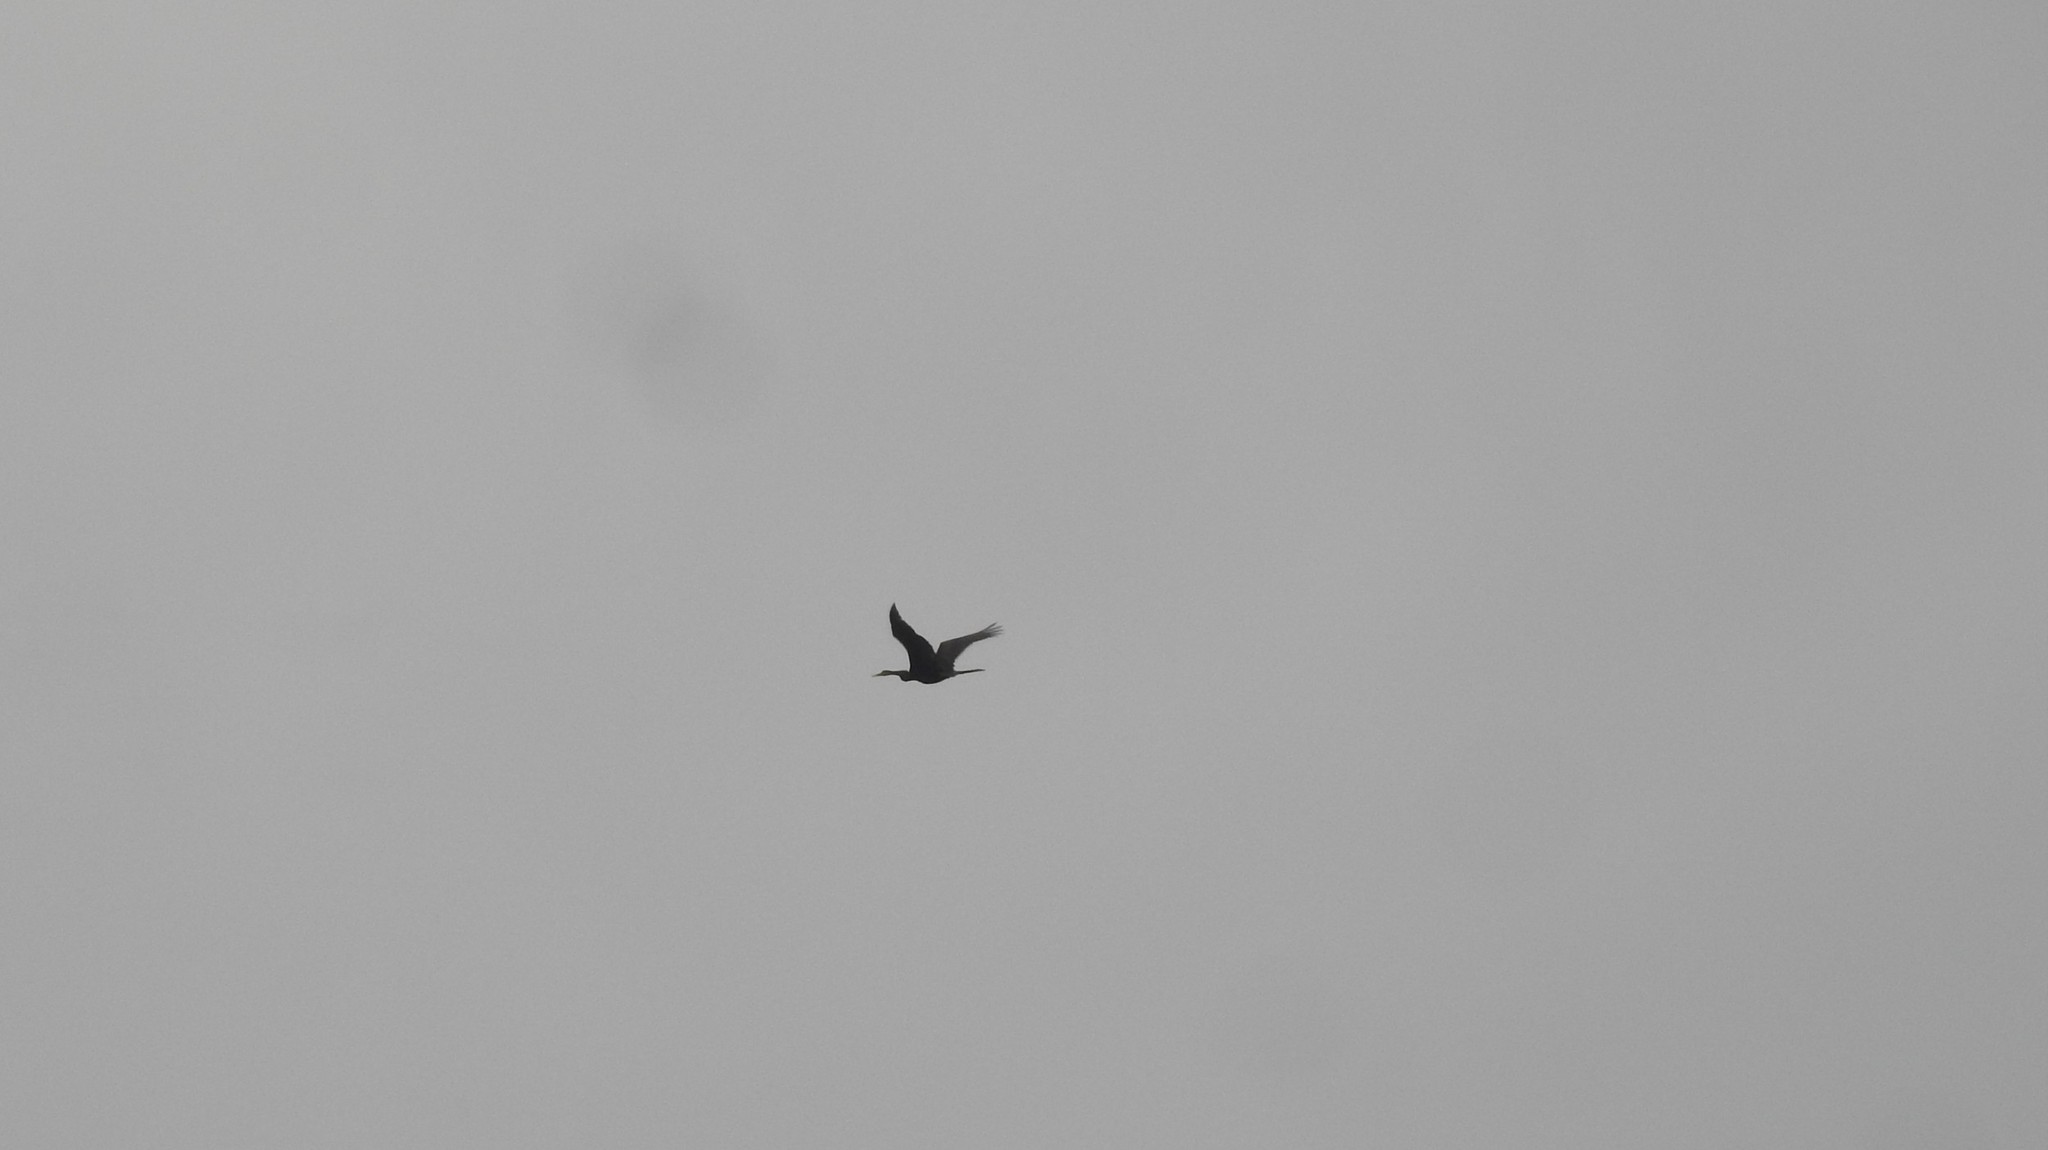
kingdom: Animalia
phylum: Chordata
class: Aves
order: Suliformes
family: Anhingidae
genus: Anhinga
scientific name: Anhinga melanogaster
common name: Oriental darter
